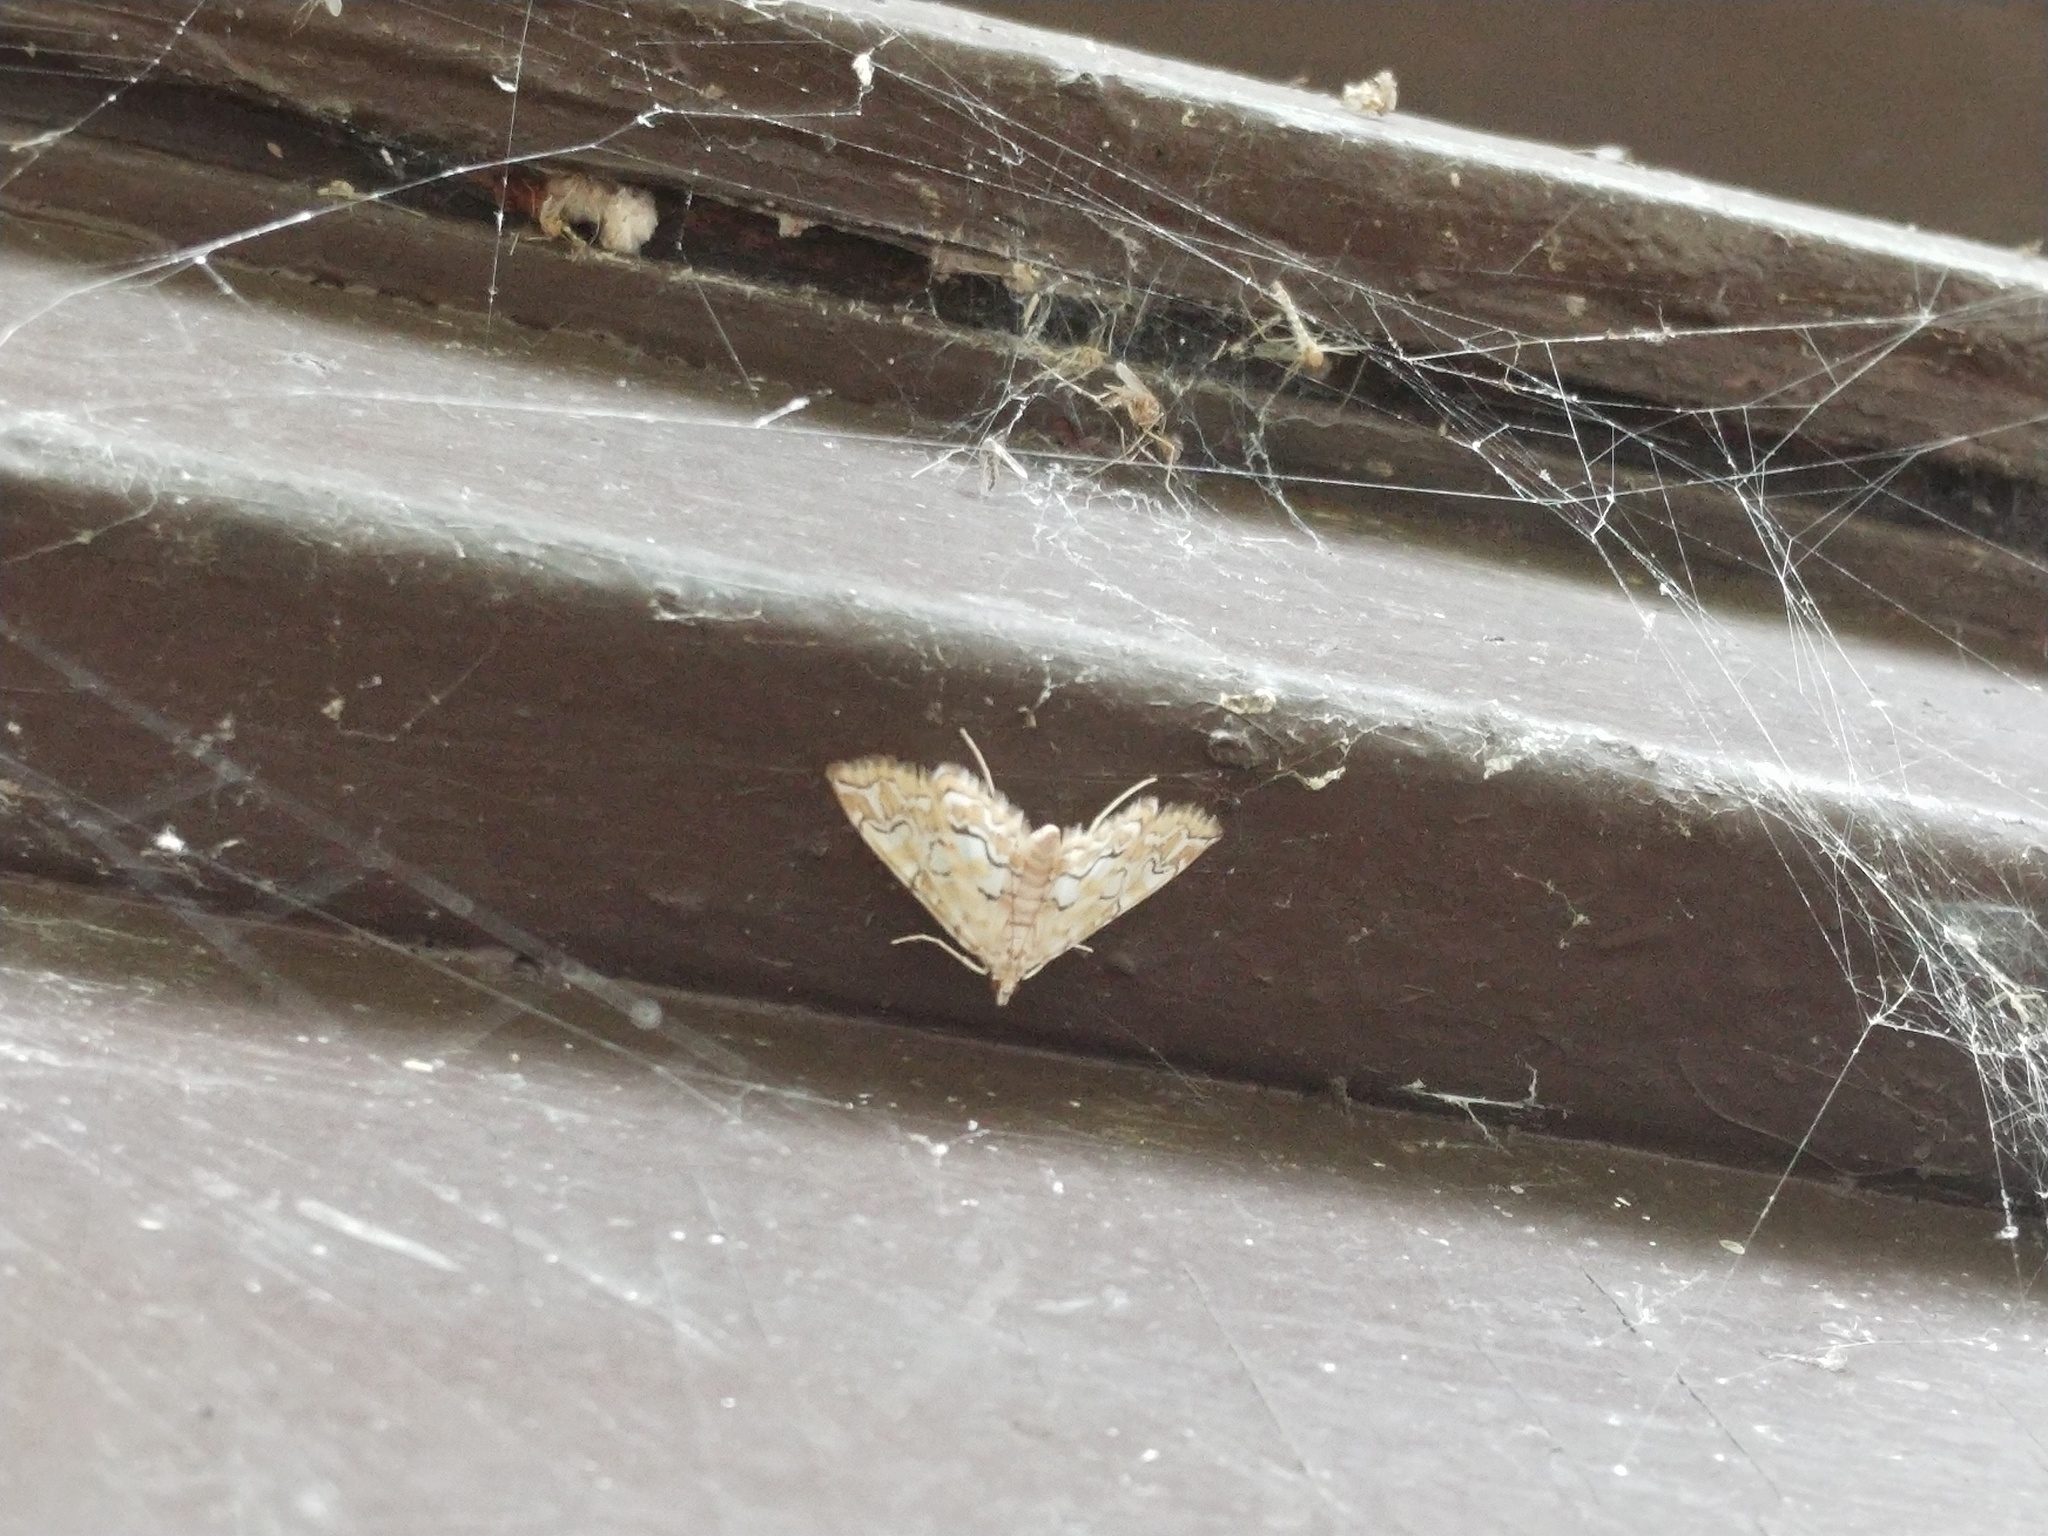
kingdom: Animalia
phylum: Arthropoda
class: Insecta
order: Lepidoptera
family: Crambidae
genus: Elophila
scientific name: Elophila icciusalis
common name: Pondside pyralid moth
